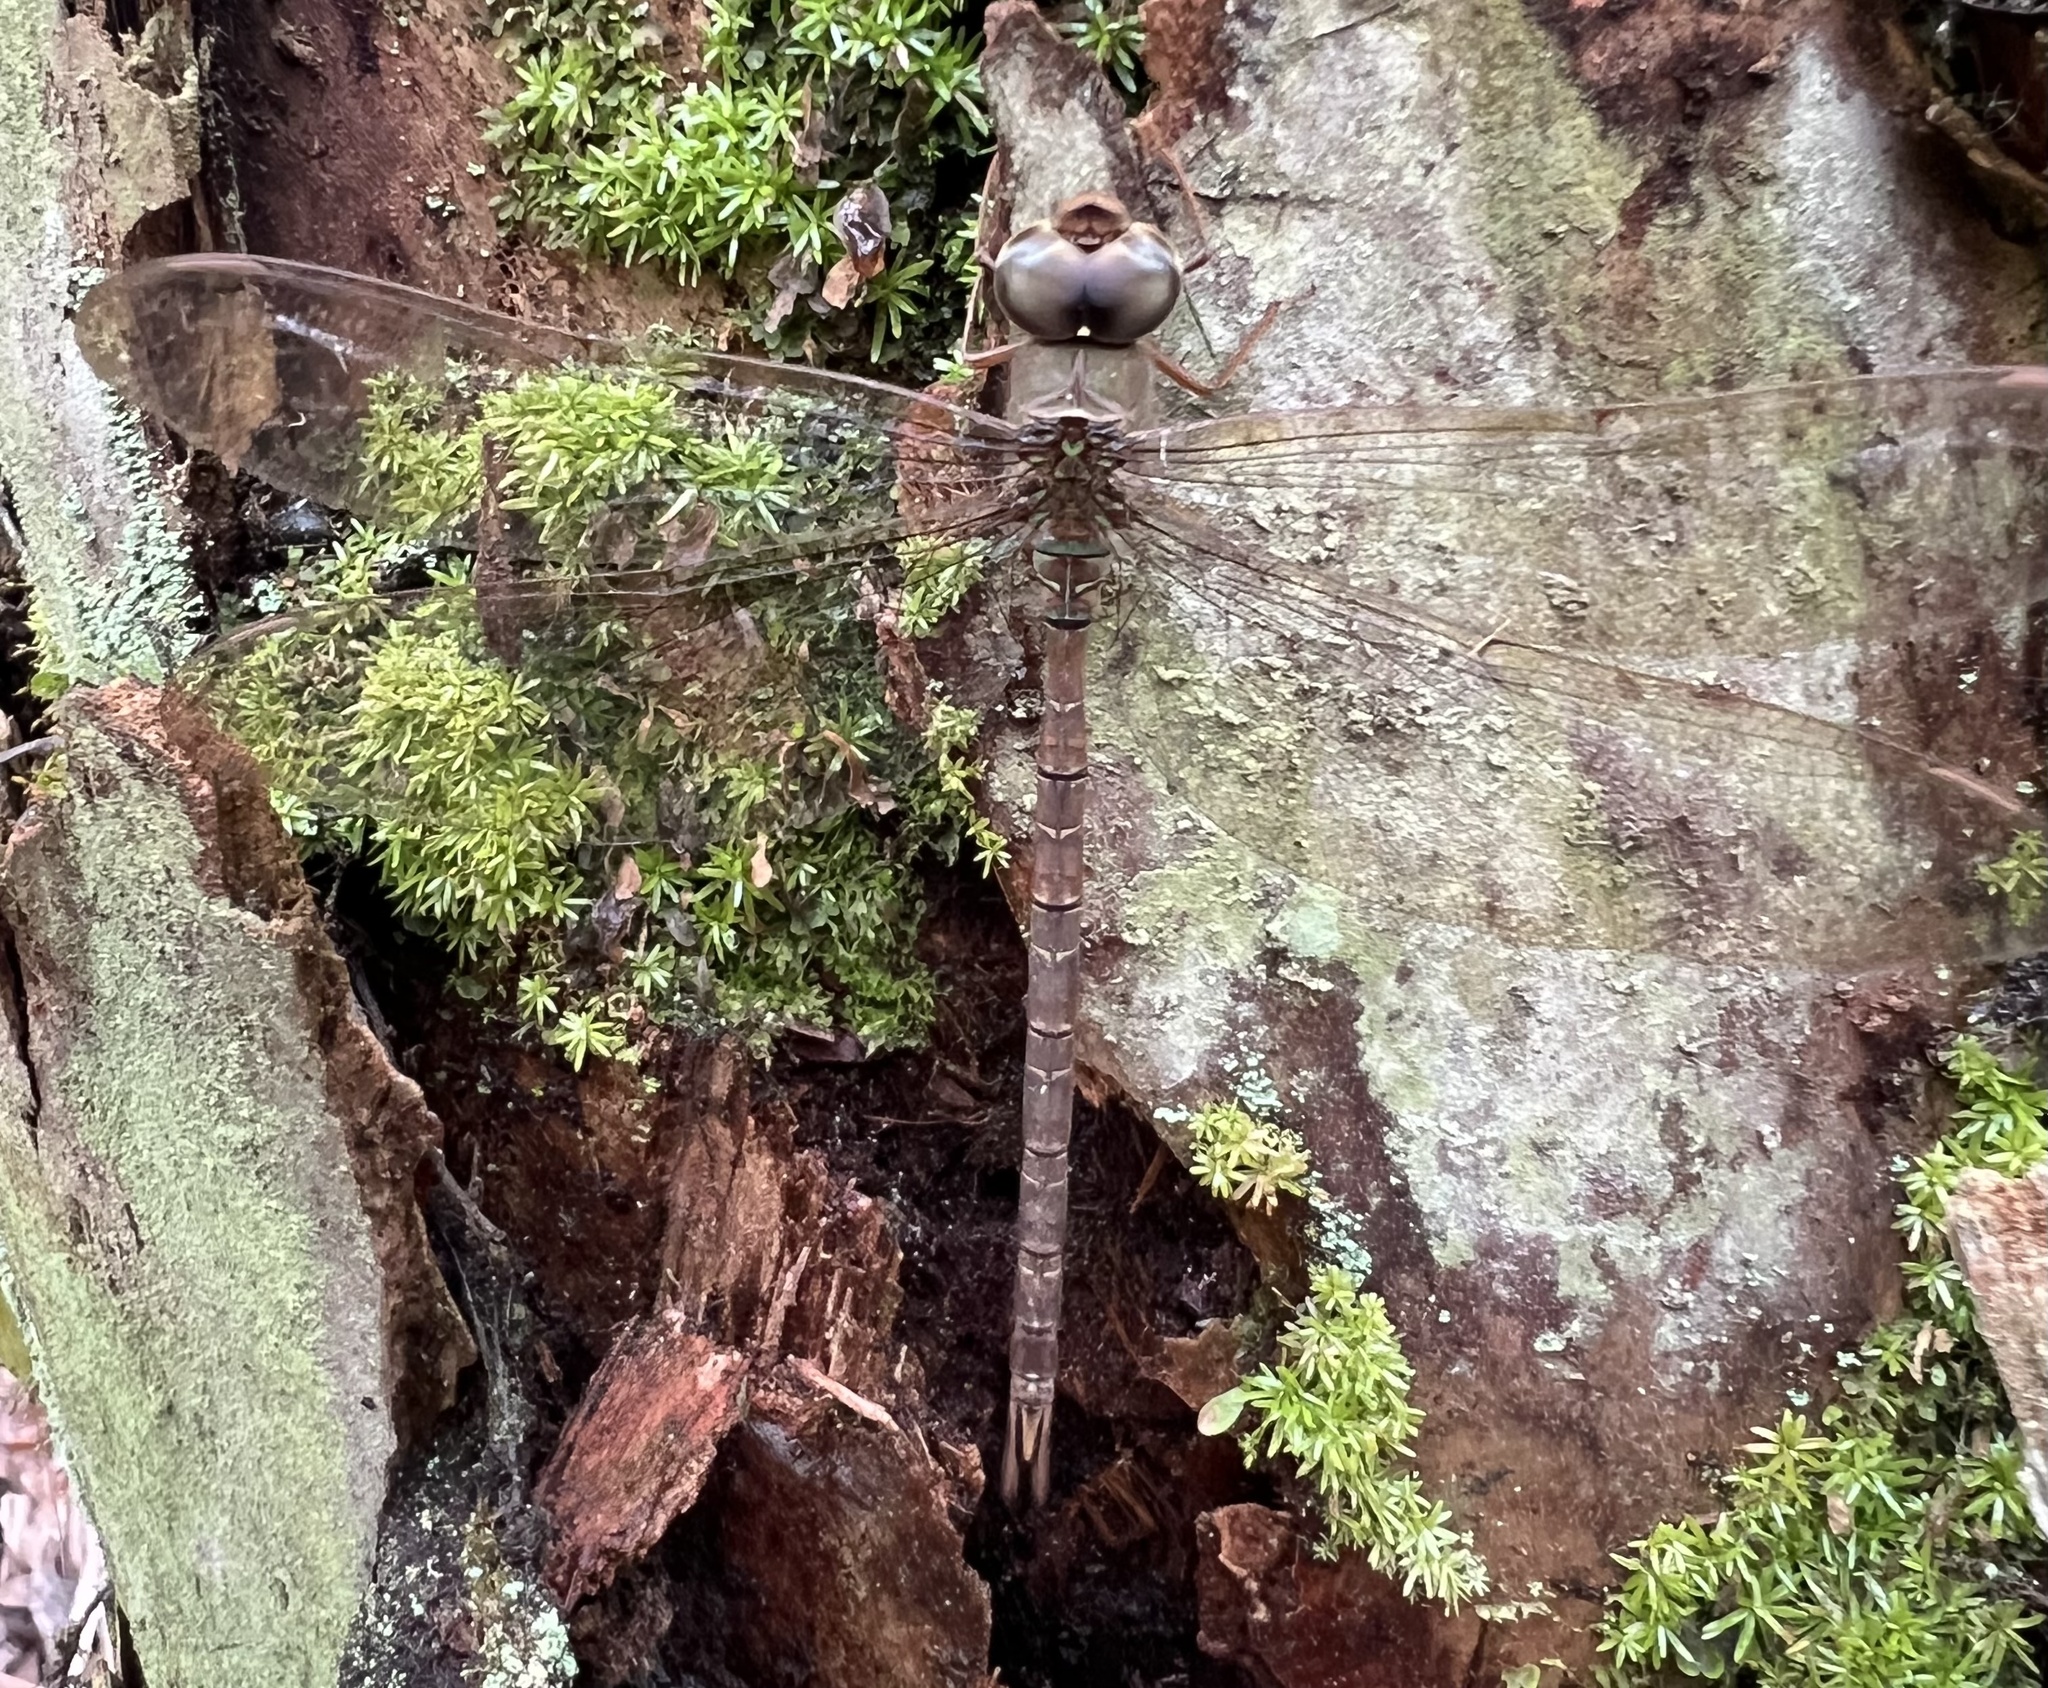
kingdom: Animalia
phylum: Arthropoda
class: Insecta
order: Odonata
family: Aeshnidae
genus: Gynacantha
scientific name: Gynacantha nervosa
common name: Twilight darner
